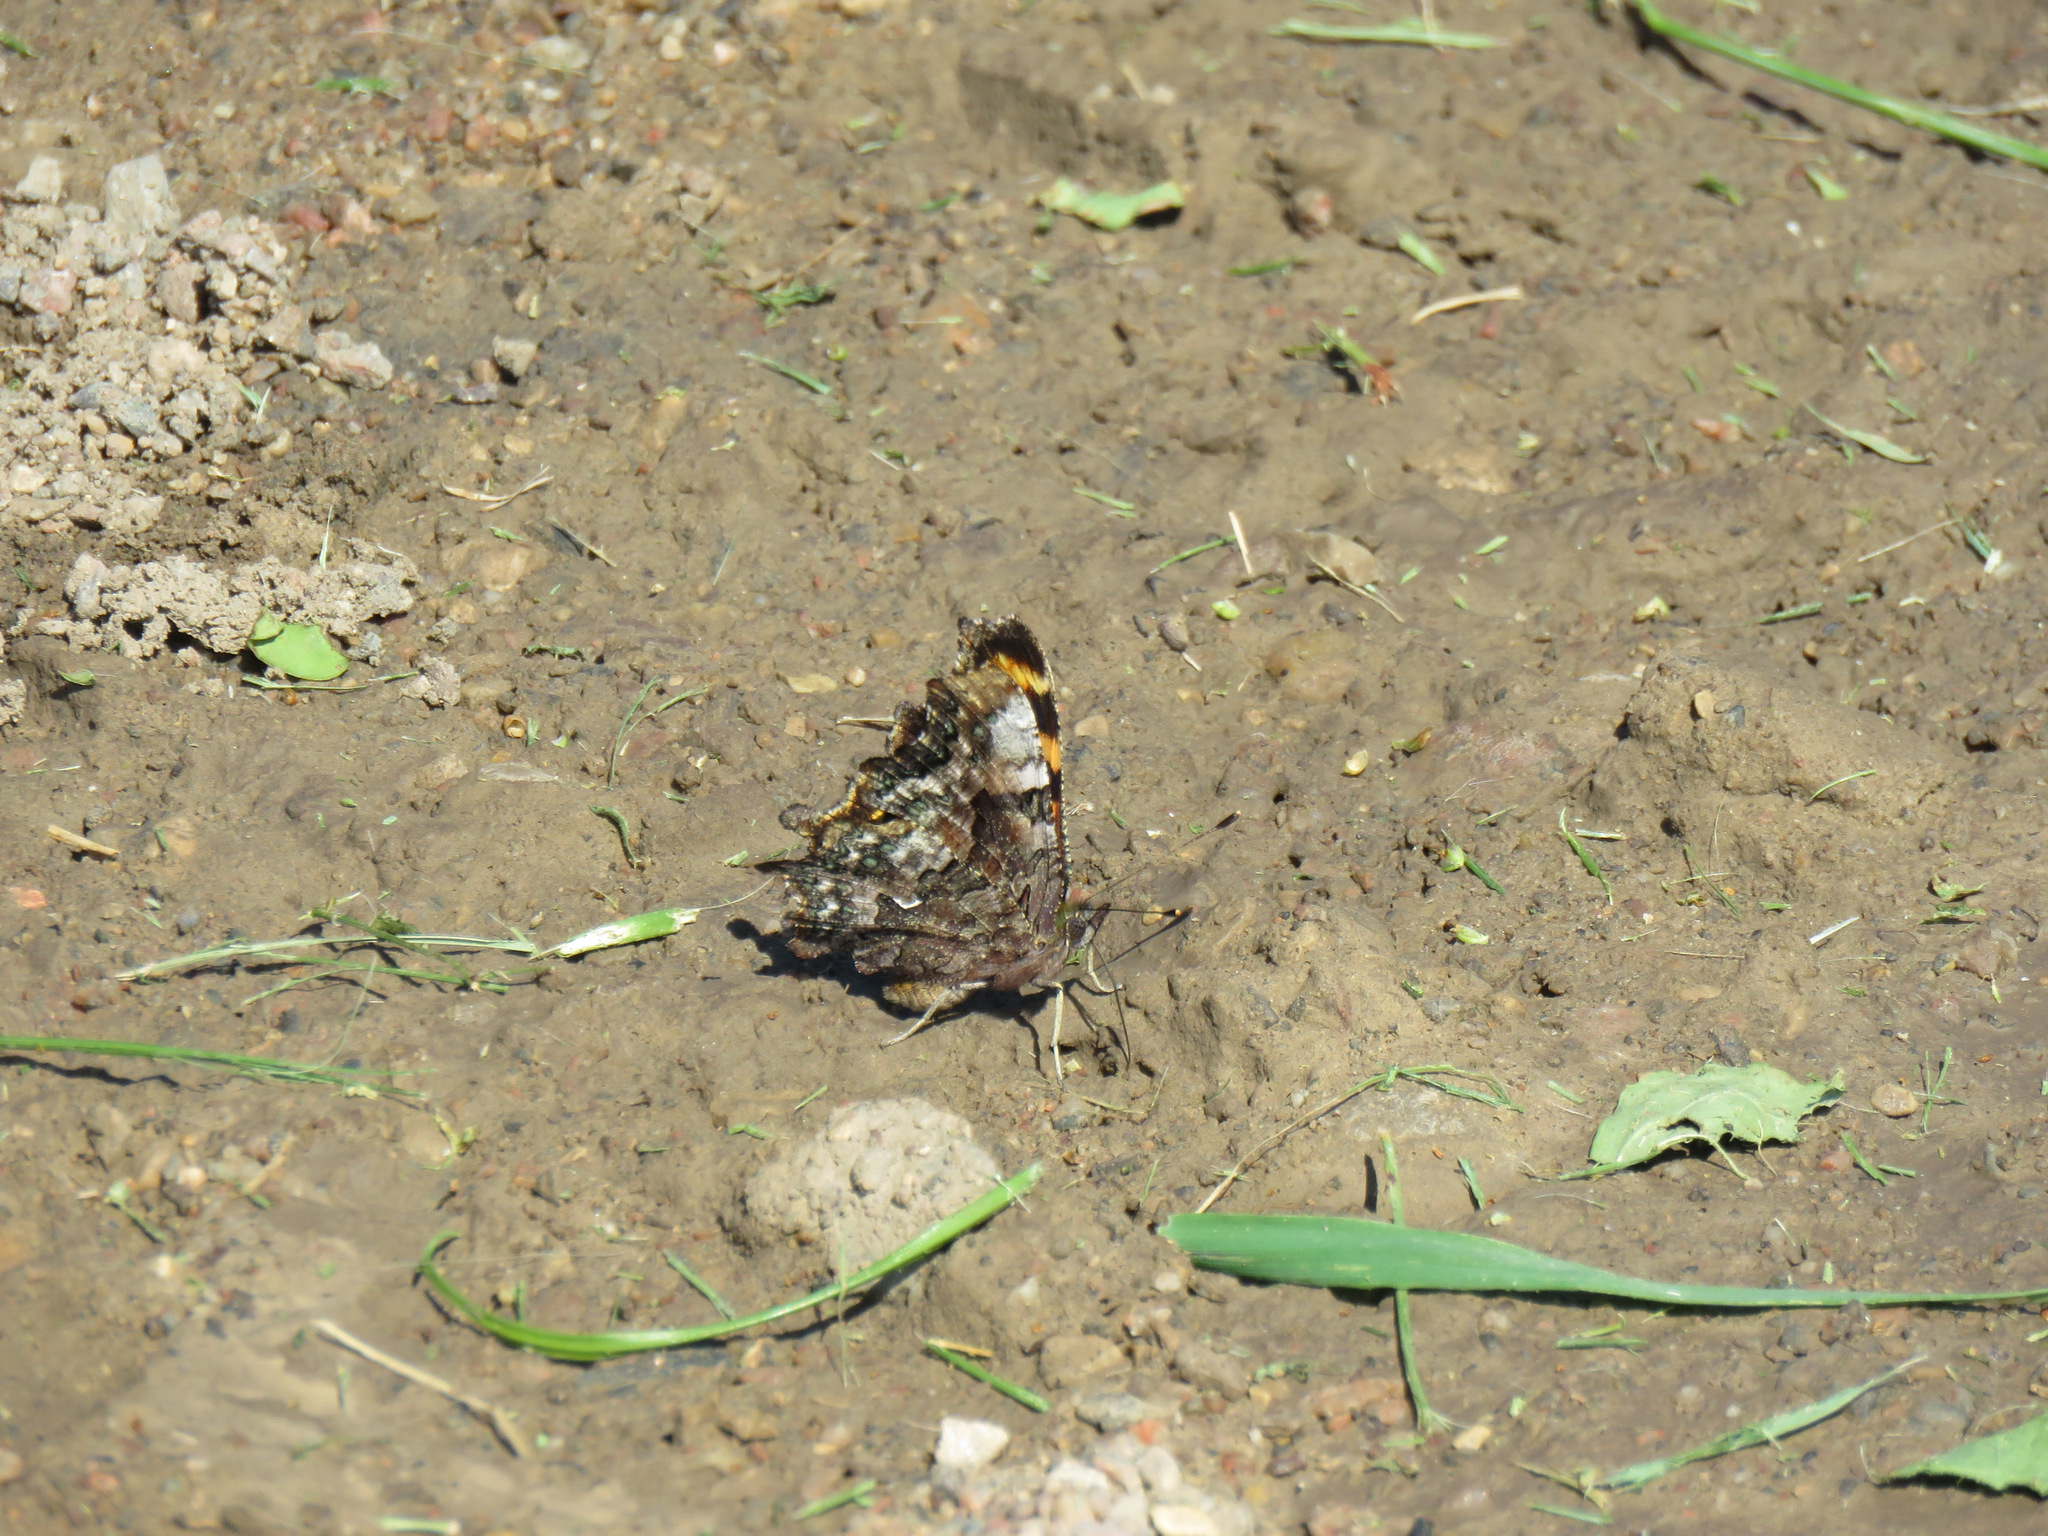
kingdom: Animalia
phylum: Arthropoda
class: Insecta
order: Lepidoptera
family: Nymphalidae
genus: Polygonia
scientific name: Polygonia faunus
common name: Green comma
